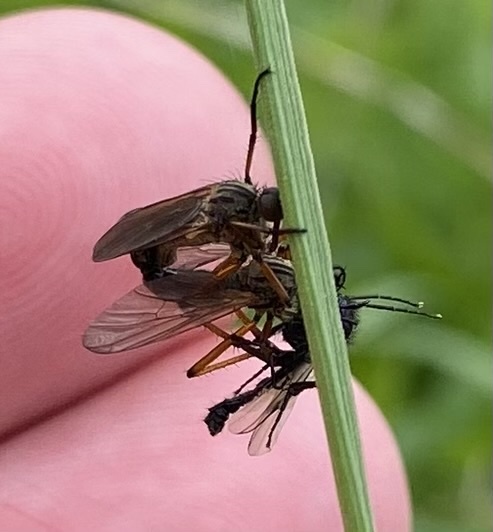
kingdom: Animalia
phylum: Arthropoda
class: Insecta
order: Diptera
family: Empididae
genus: Empis
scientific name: Empis opaca
